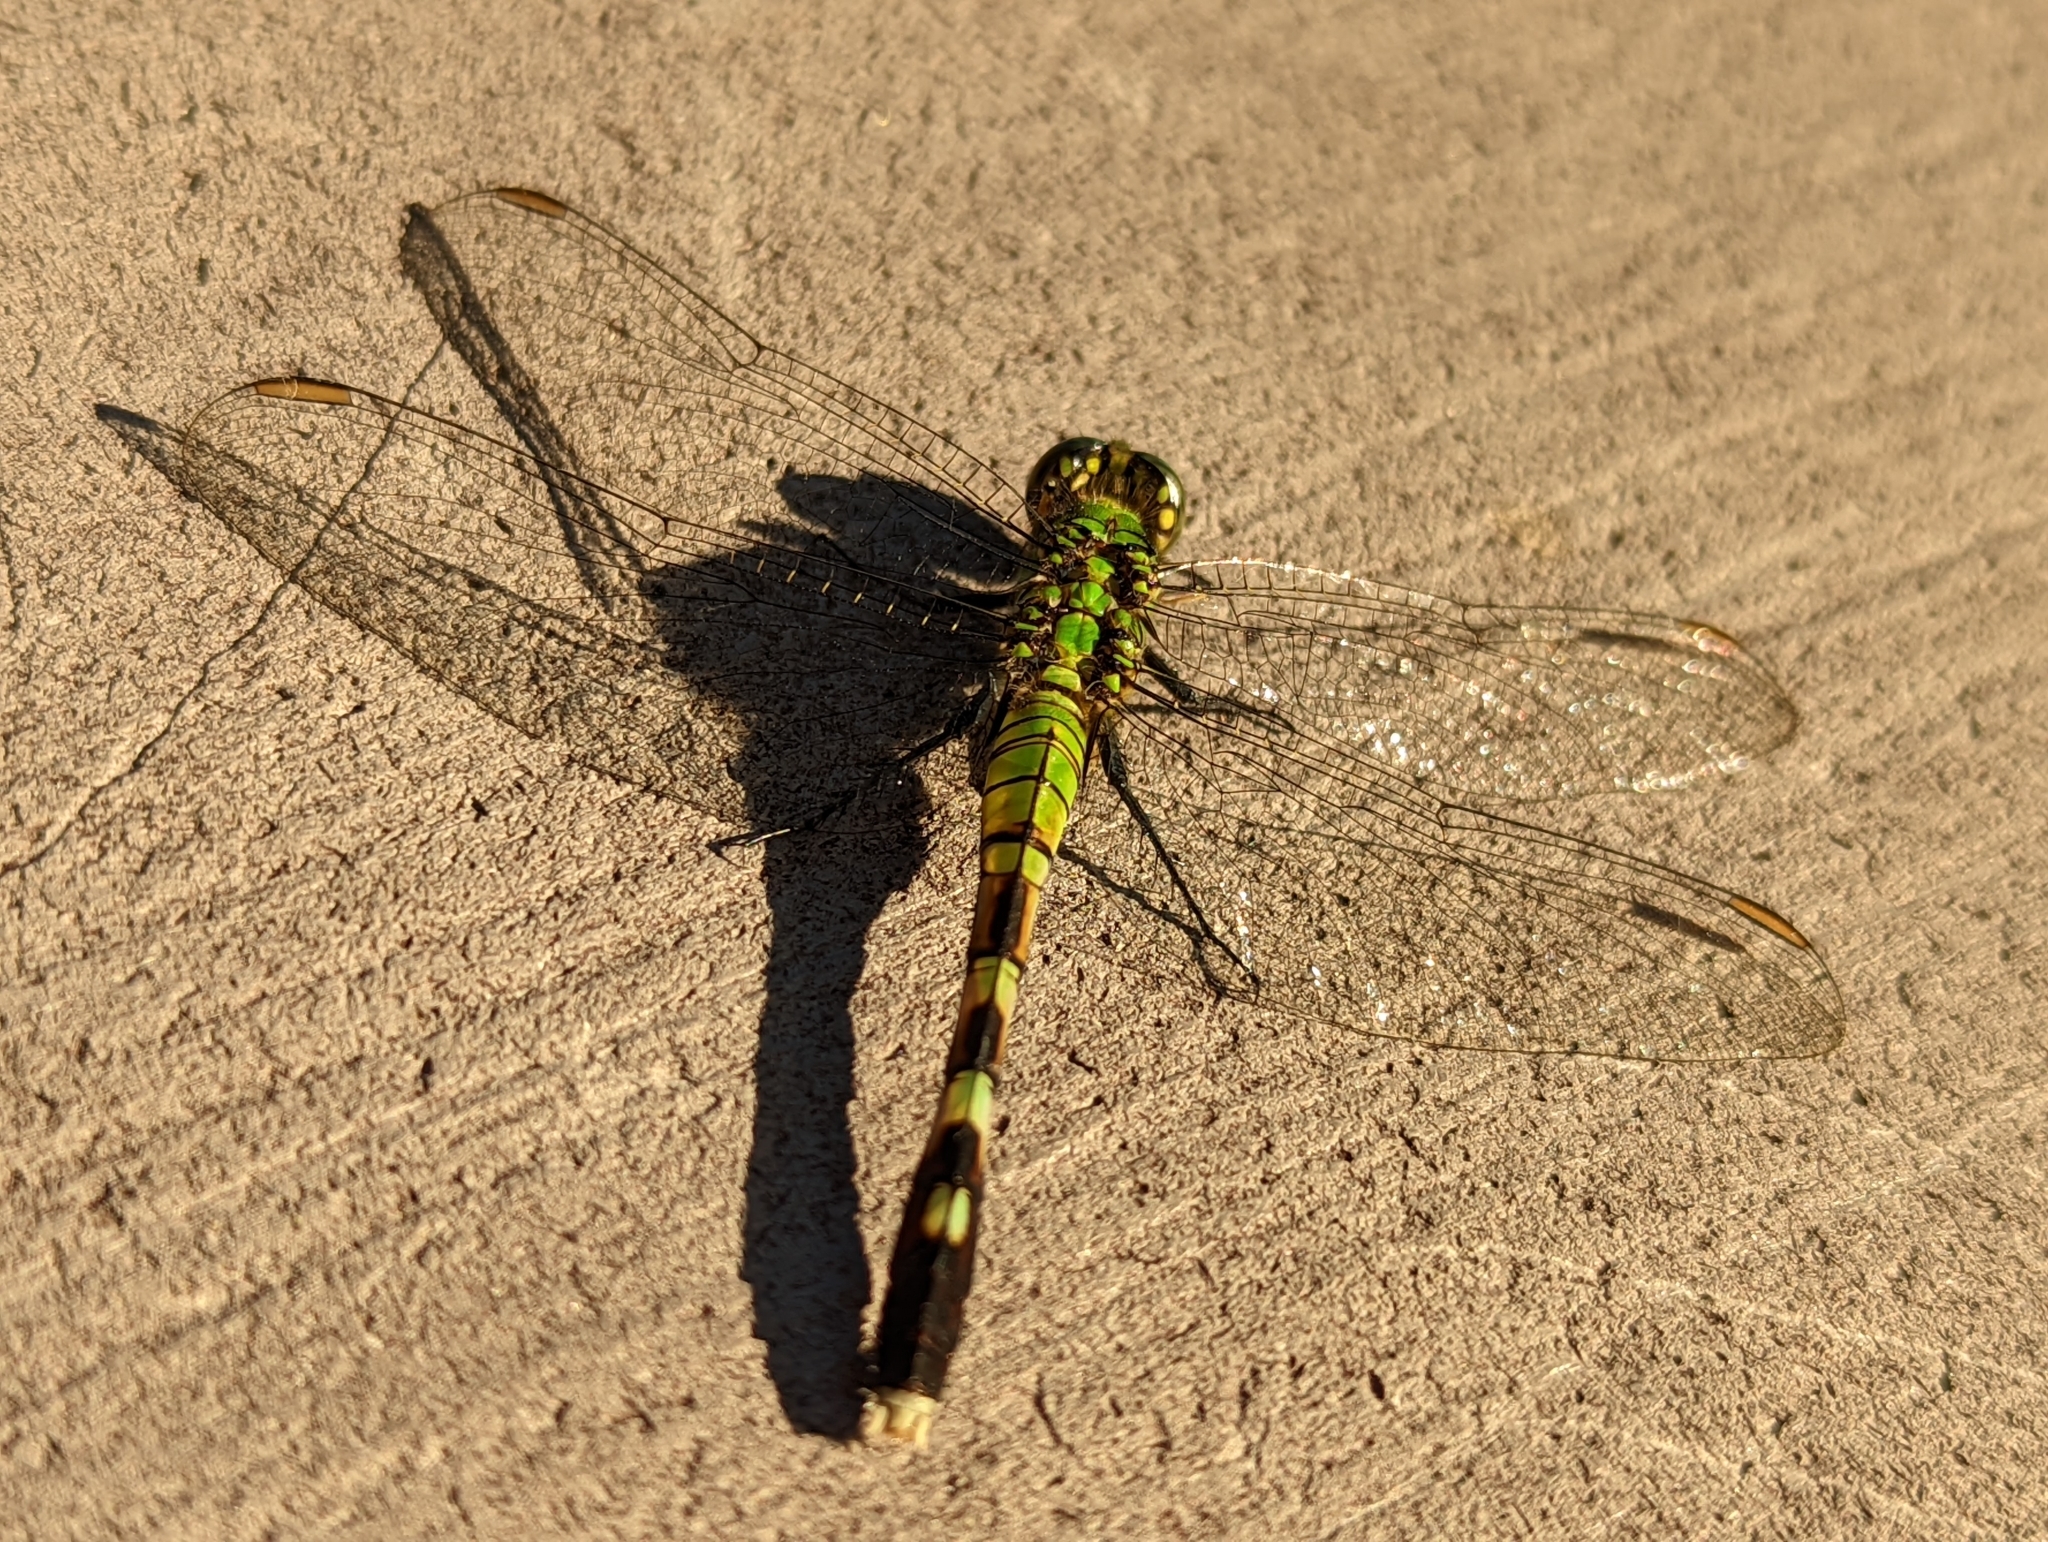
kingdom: Animalia
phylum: Arthropoda
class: Insecta
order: Odonata
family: Libellulidae
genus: Erythemis
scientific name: Erythemis simplicicollis
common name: Eastern pondhawk
